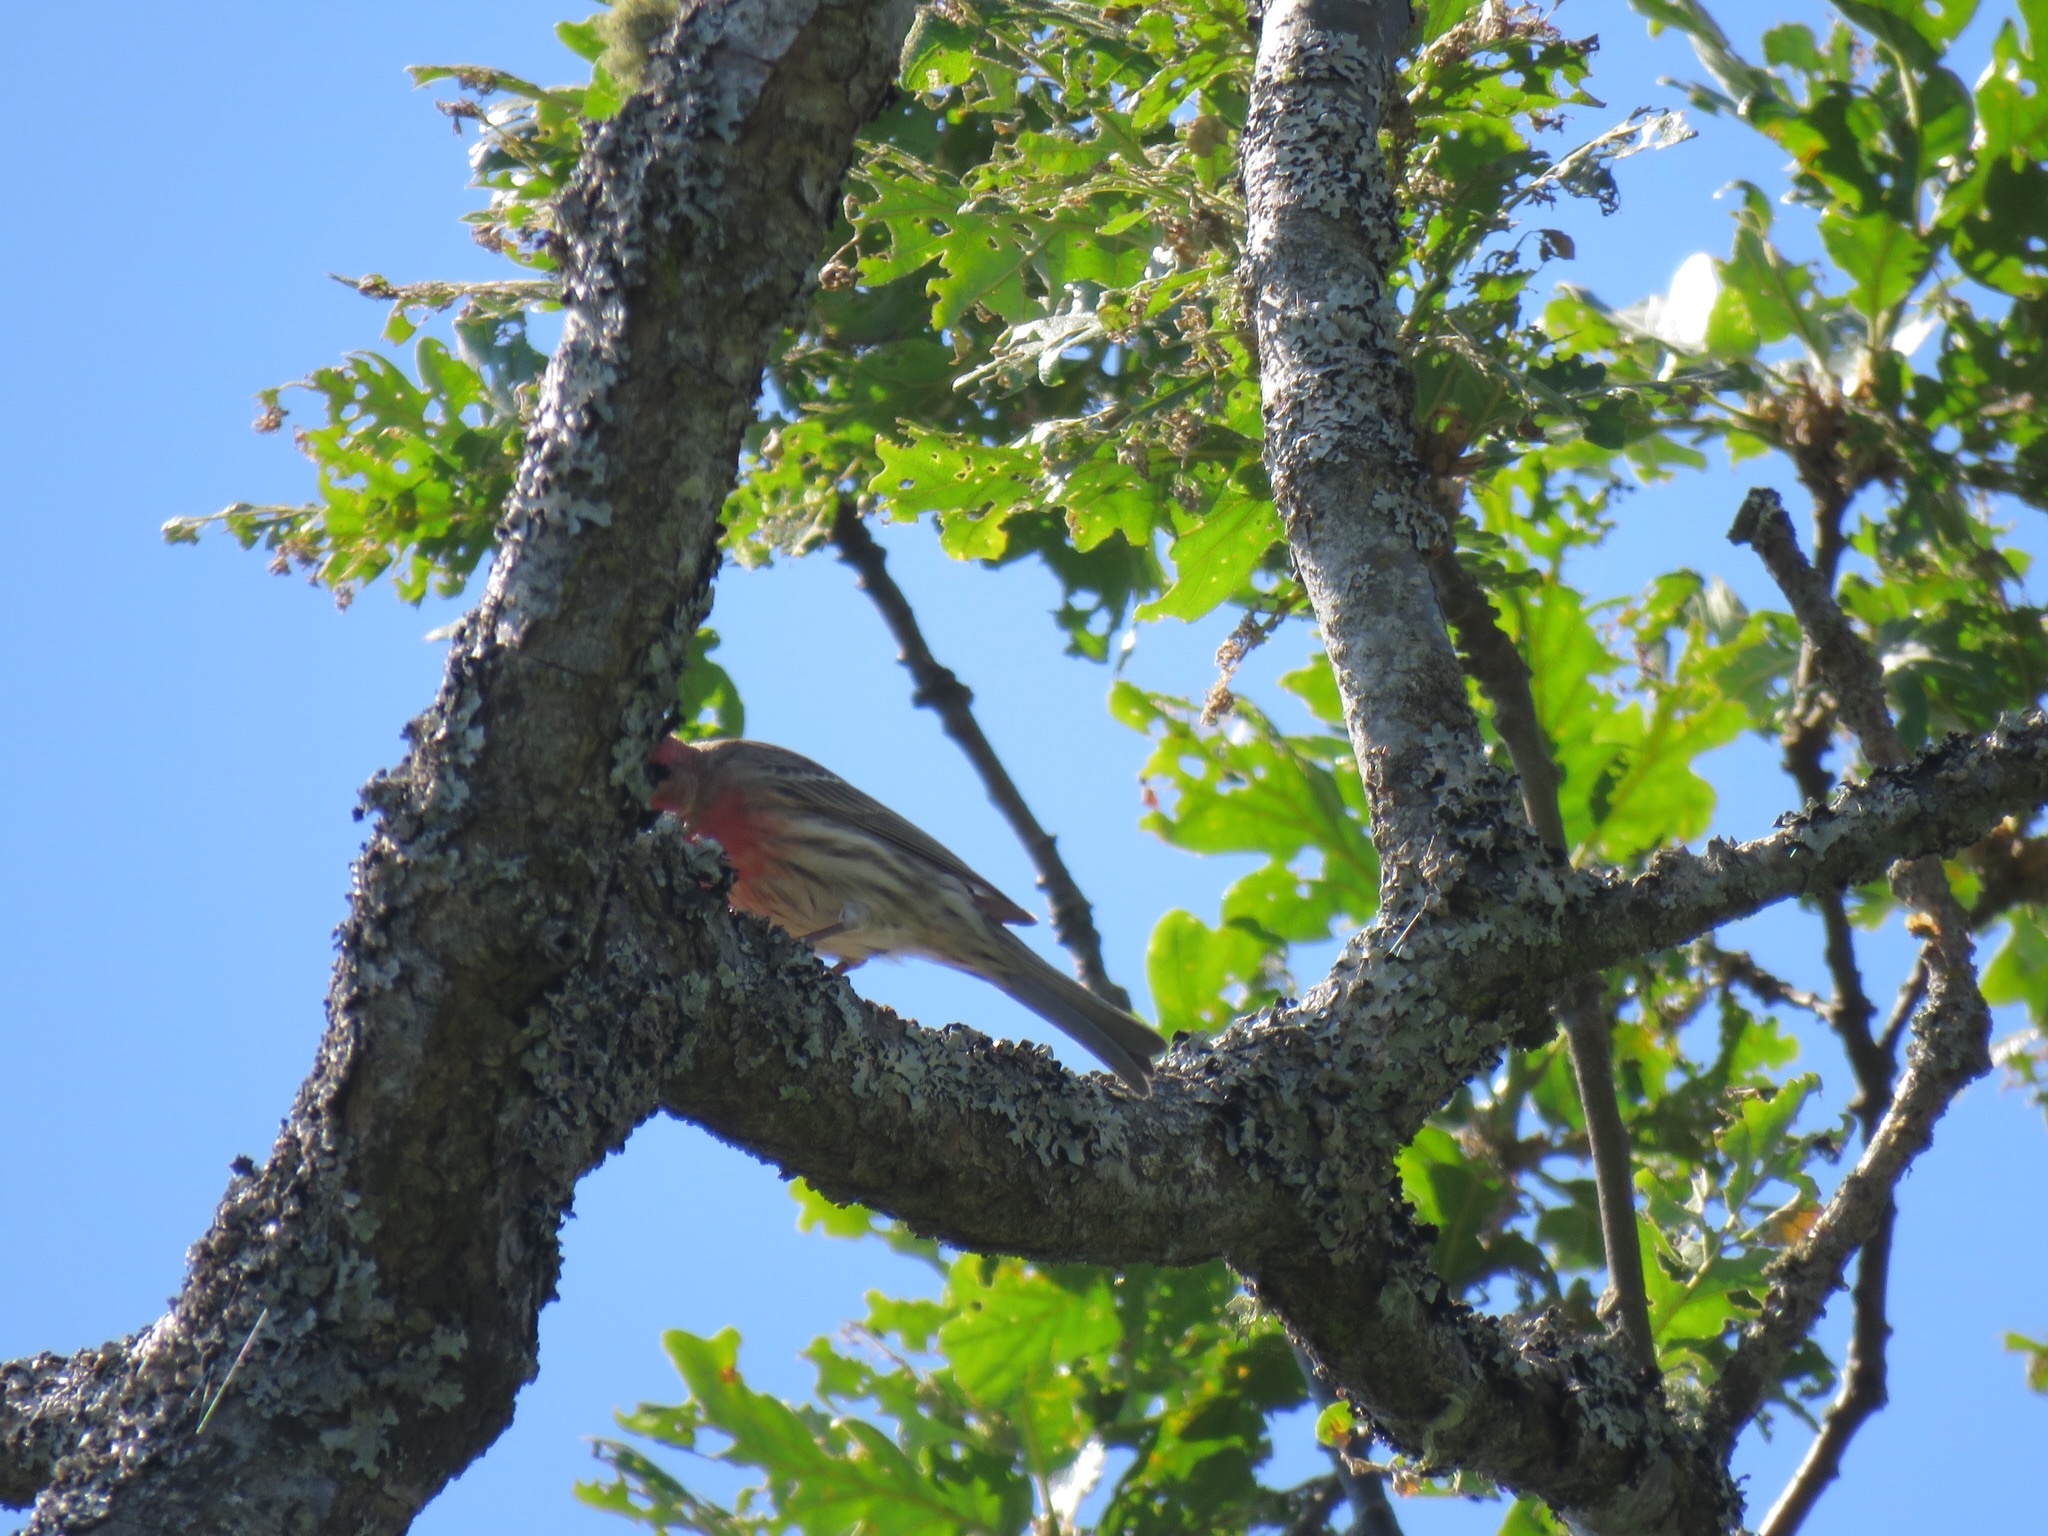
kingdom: Animalia
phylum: Chordata
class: Aves
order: Passeriformes
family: Fringillidae
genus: Haemorhous
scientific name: Haemorhous mexicanus
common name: House finch
